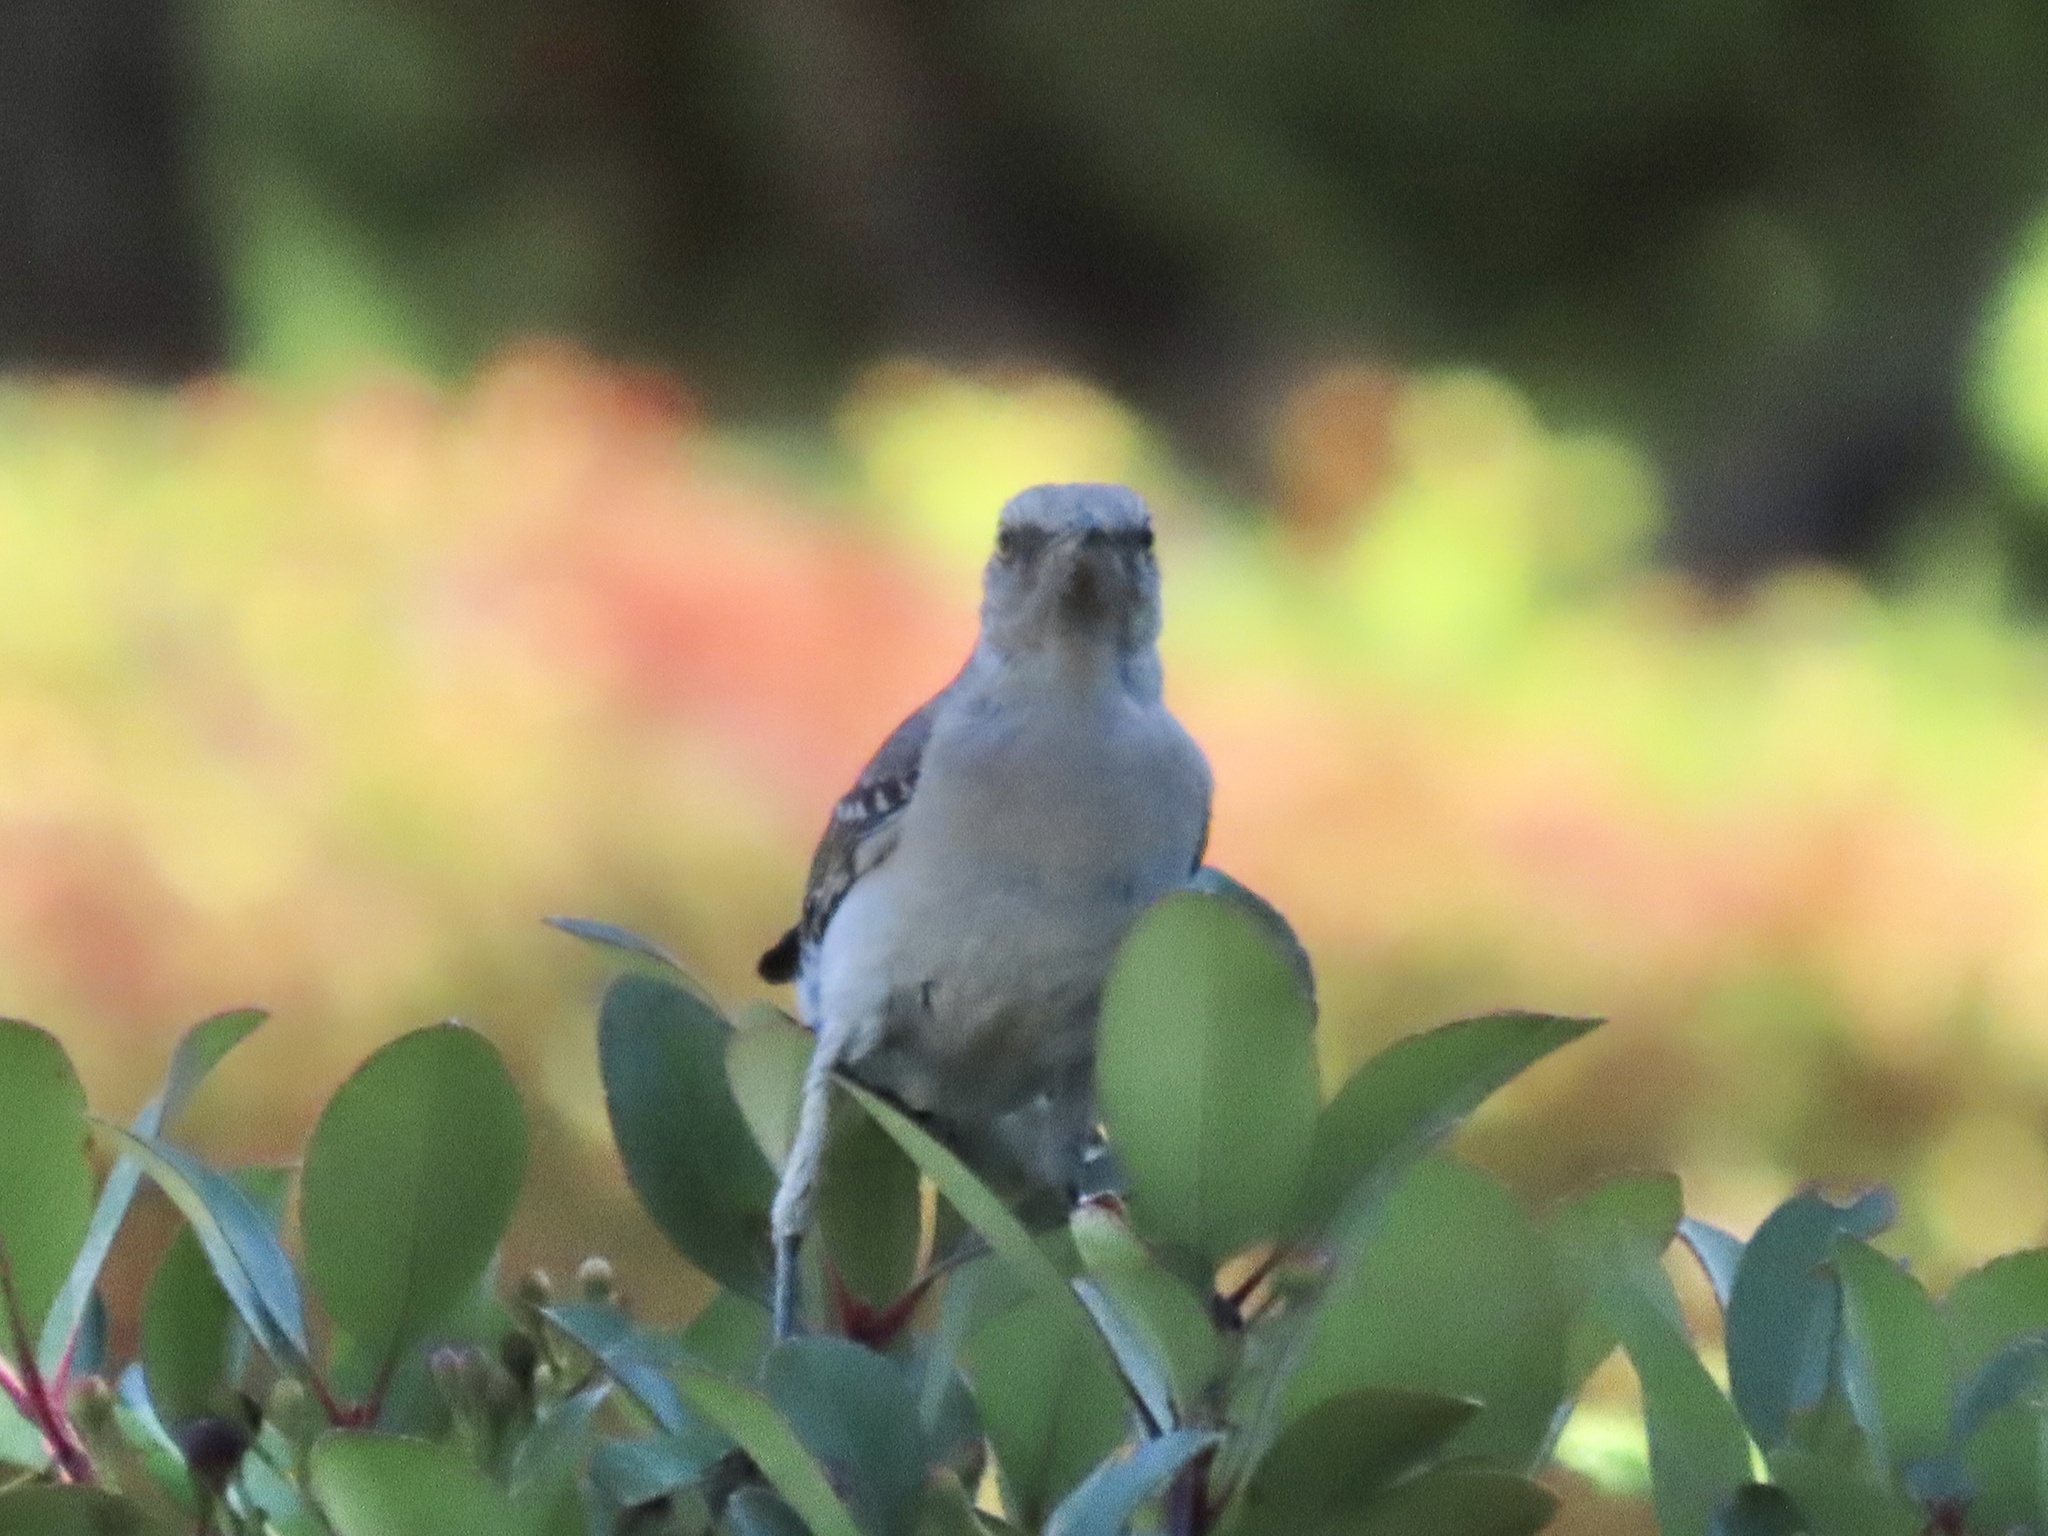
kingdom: Animalia
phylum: Chordata
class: Aves
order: Passeriformes
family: Mimidae
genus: Mimus
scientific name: Mimus polyglottos
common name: Northern mockingbird
